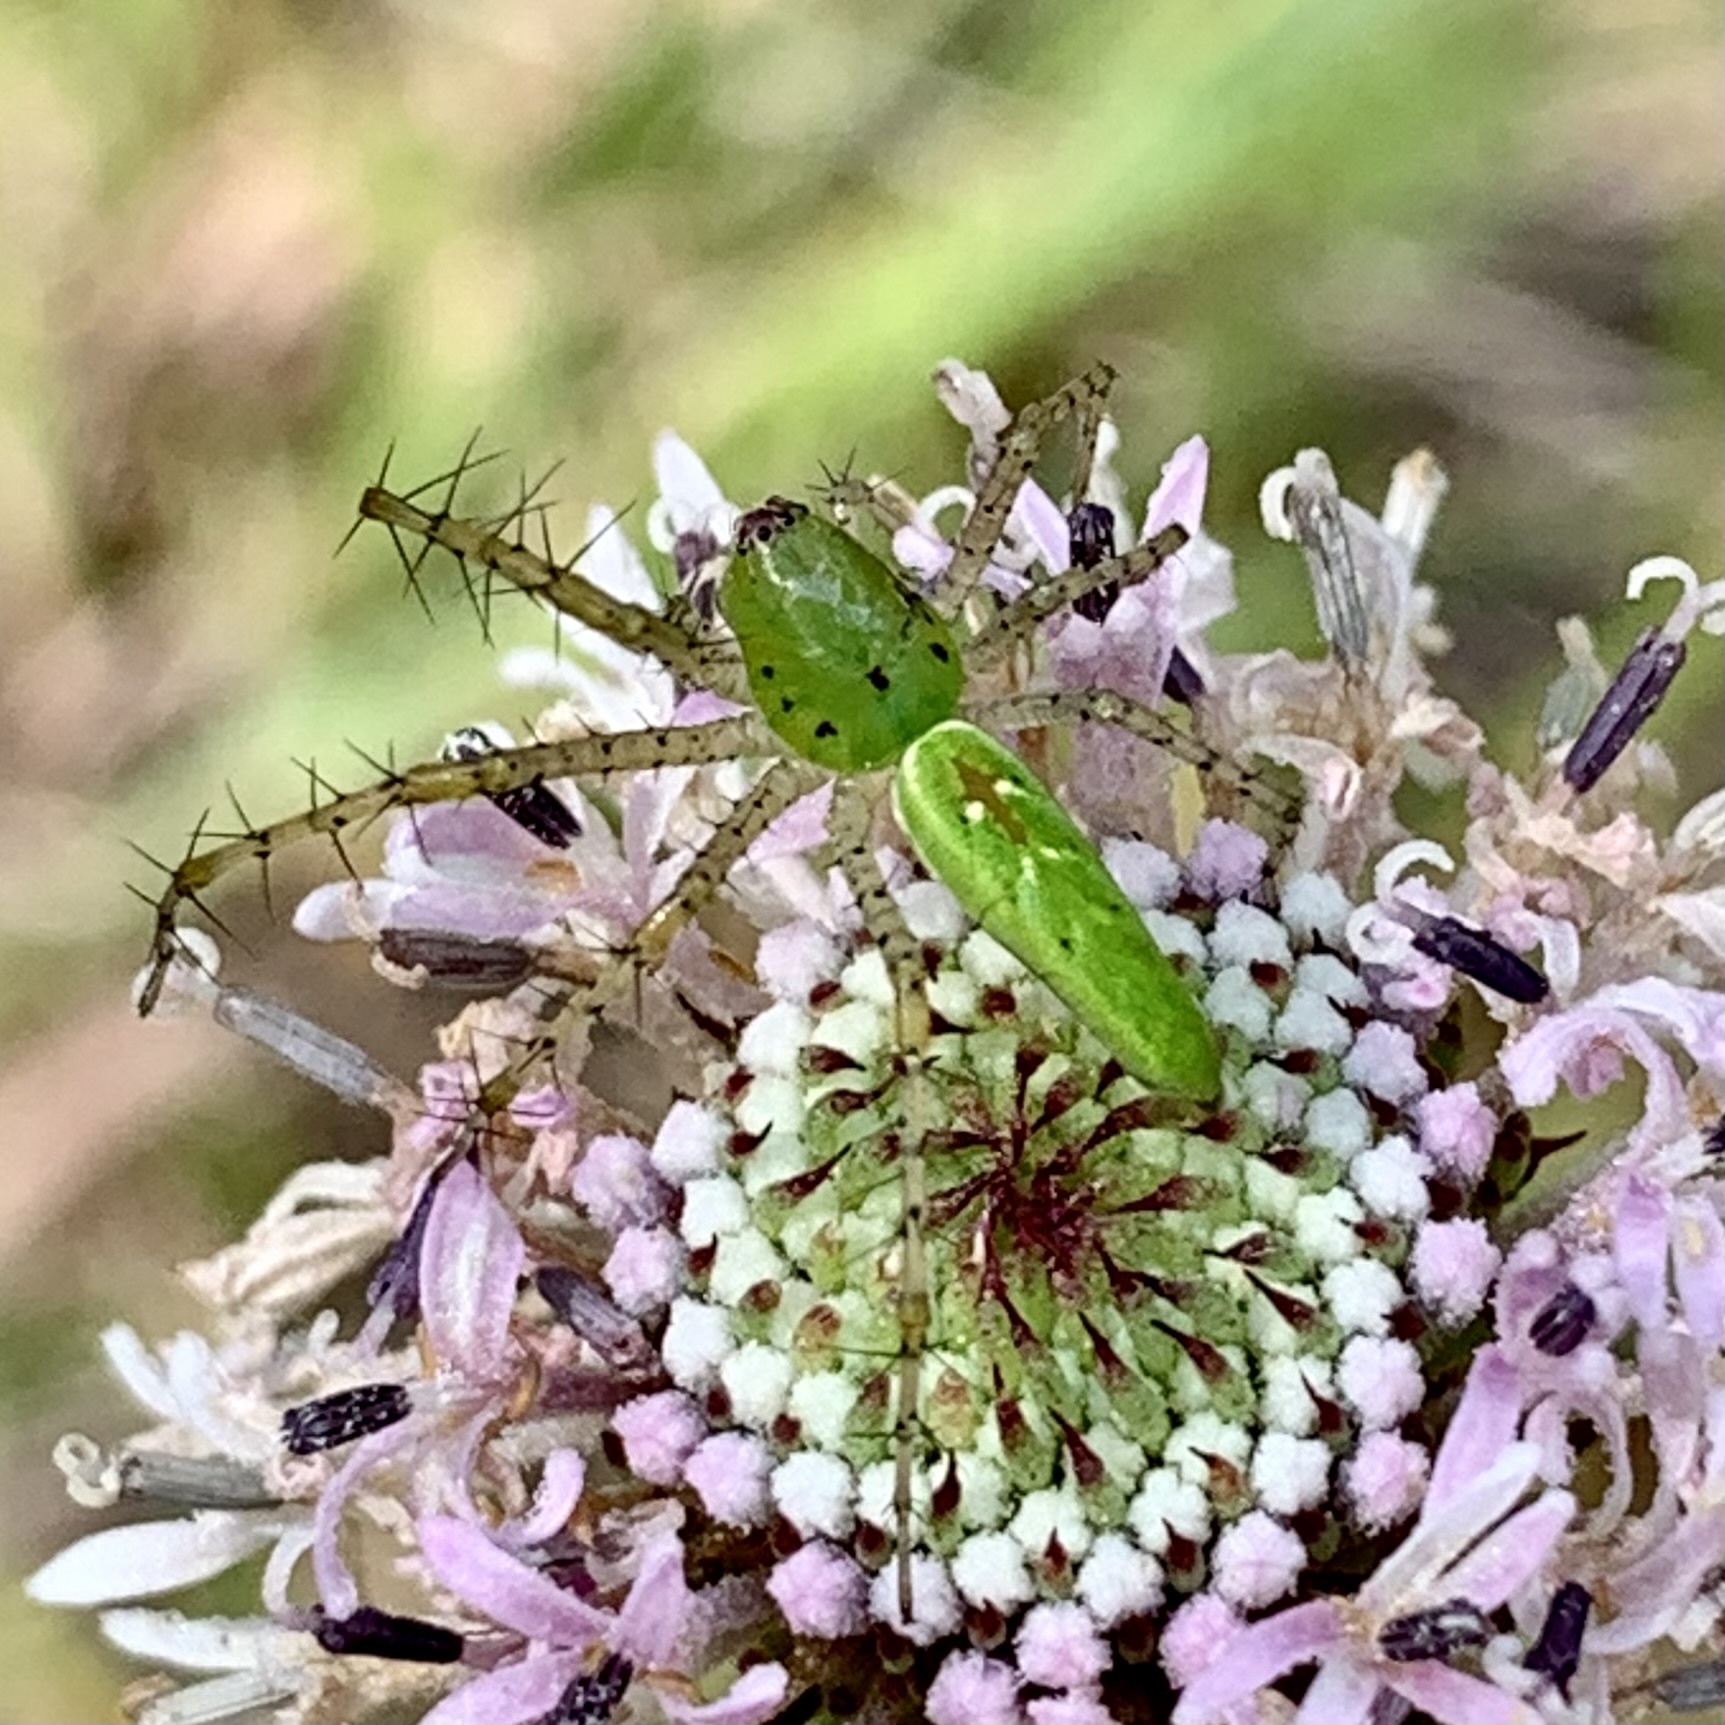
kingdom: Animalia
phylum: Arthropoda
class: Arachnida
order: Araneae
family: Oxyopidae
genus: Peucetia
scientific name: Peucetia viridans
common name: Lynx spiders
